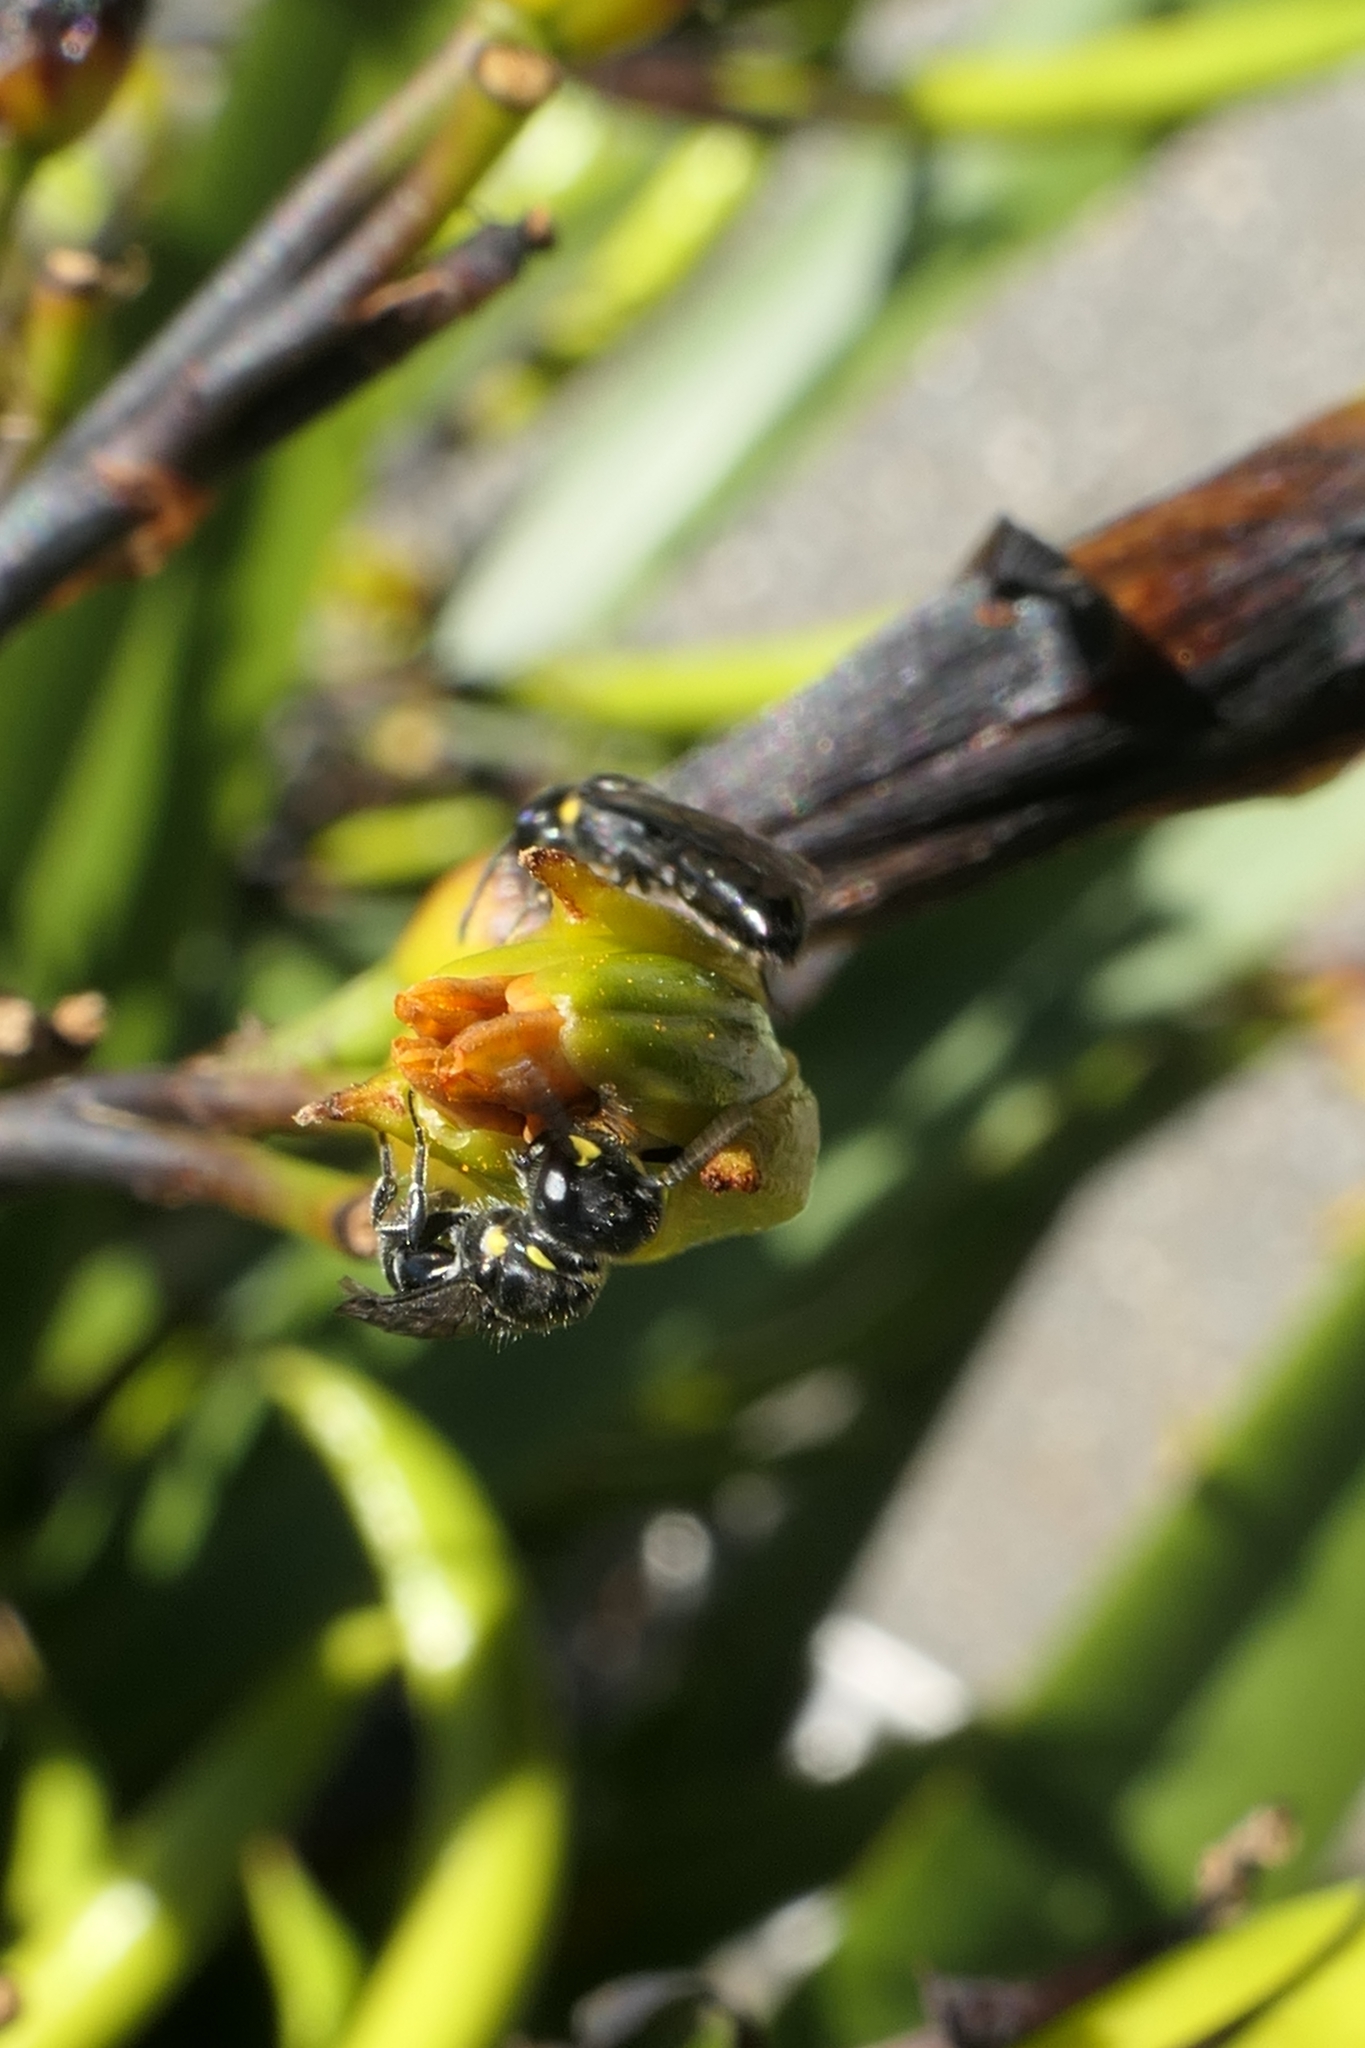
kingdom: Animalia
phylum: Arthropoda
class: Insecta
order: Hymenoptera
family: Colletidae
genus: Hylaeus
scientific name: Hylaeus relegatus
